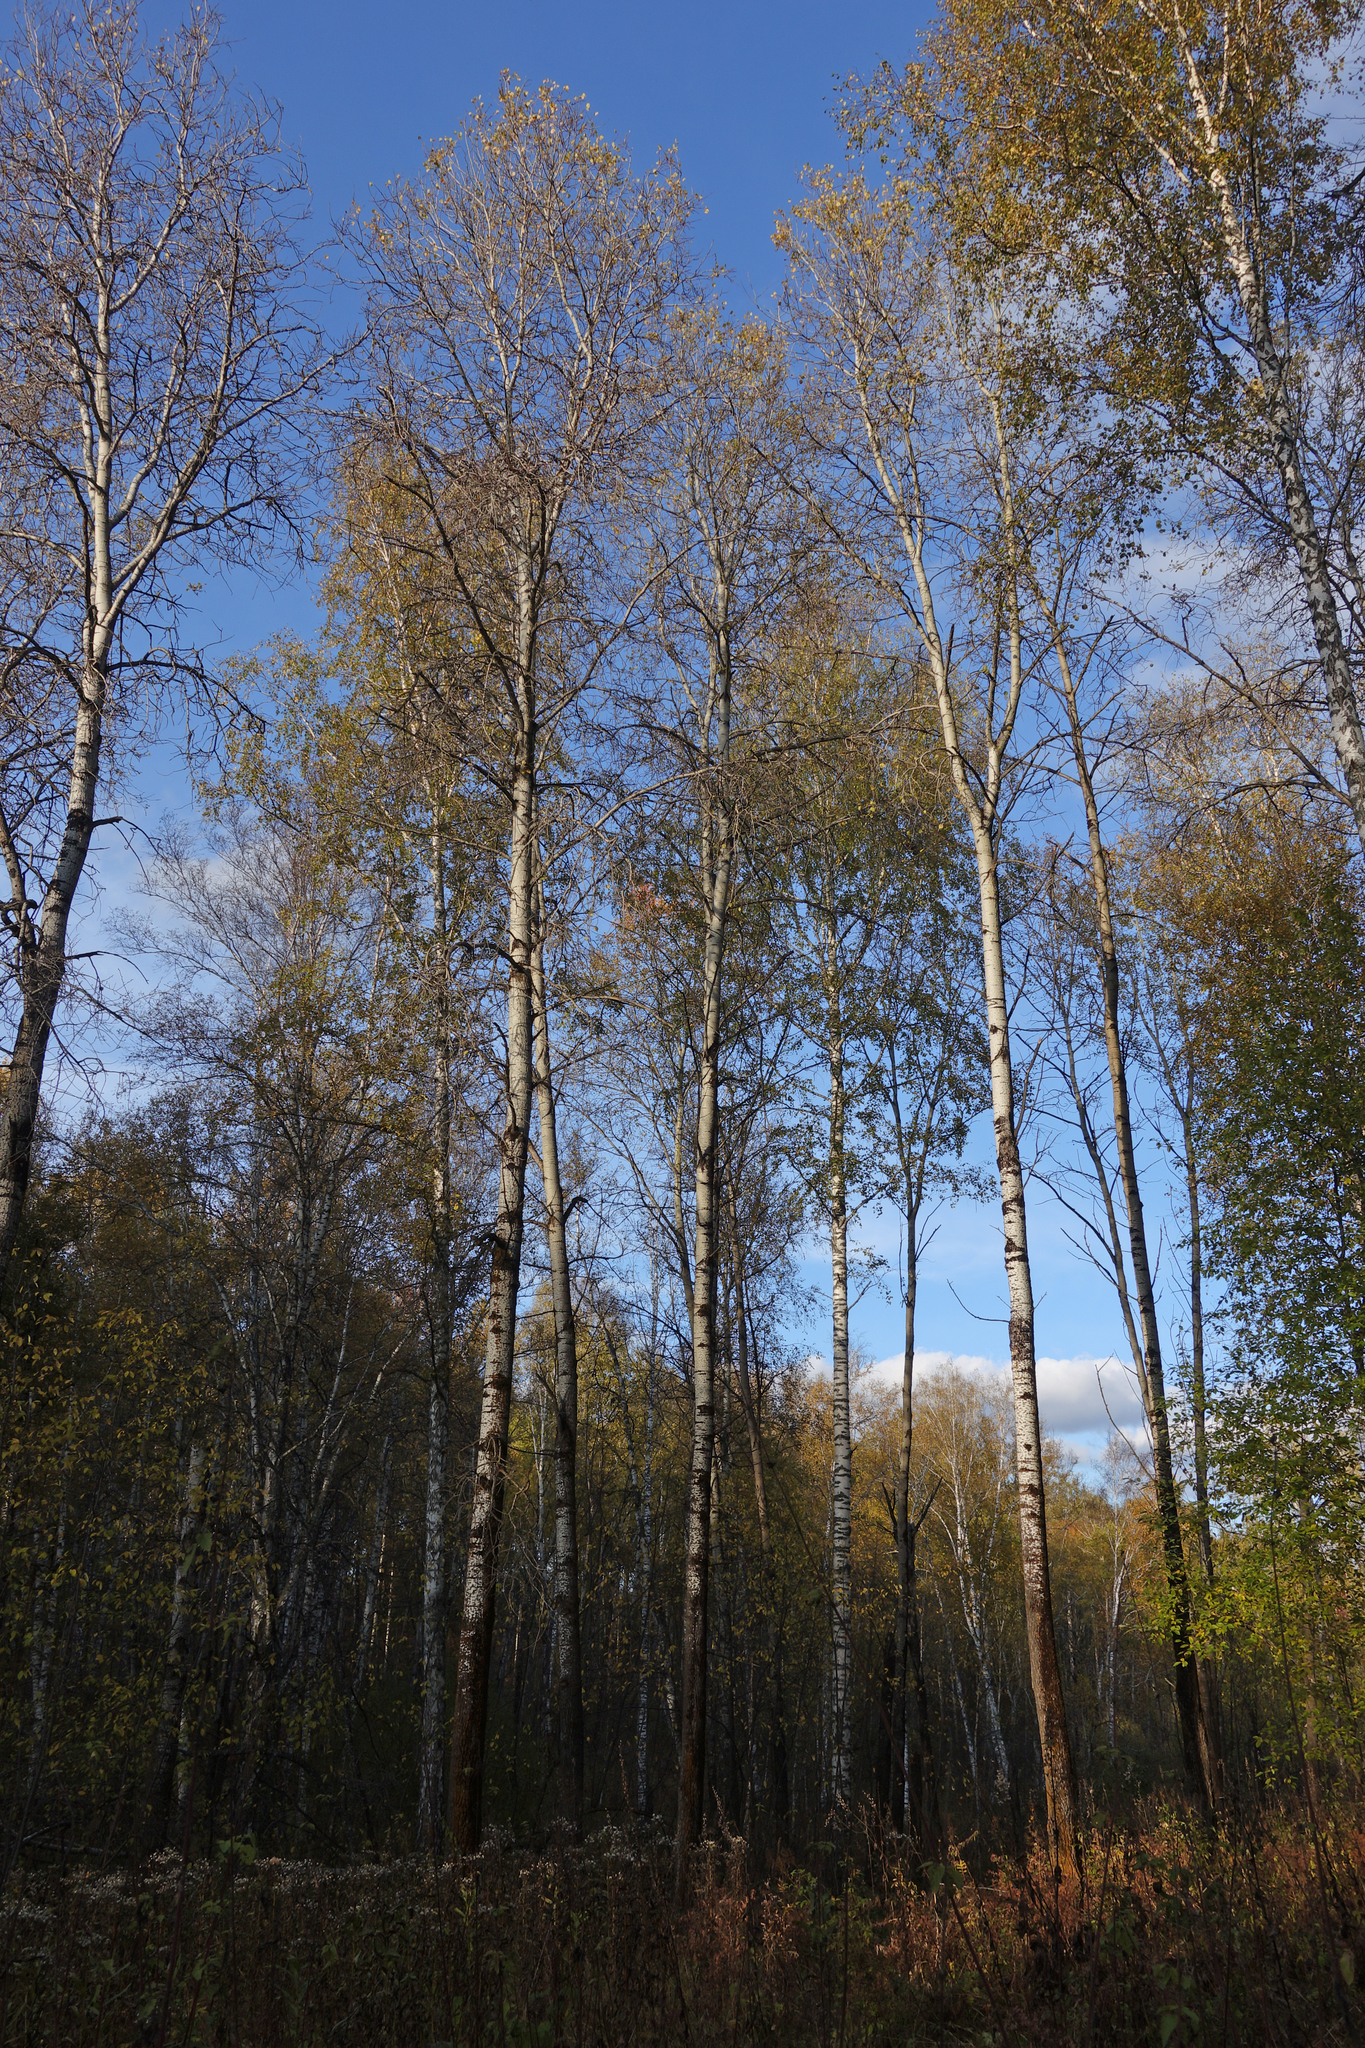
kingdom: Plantae
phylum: Tracheophyta
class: Magnoliopsida
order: Malpighiales
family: Salicaceae
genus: Populus
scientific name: Populus tremula
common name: European aspen
